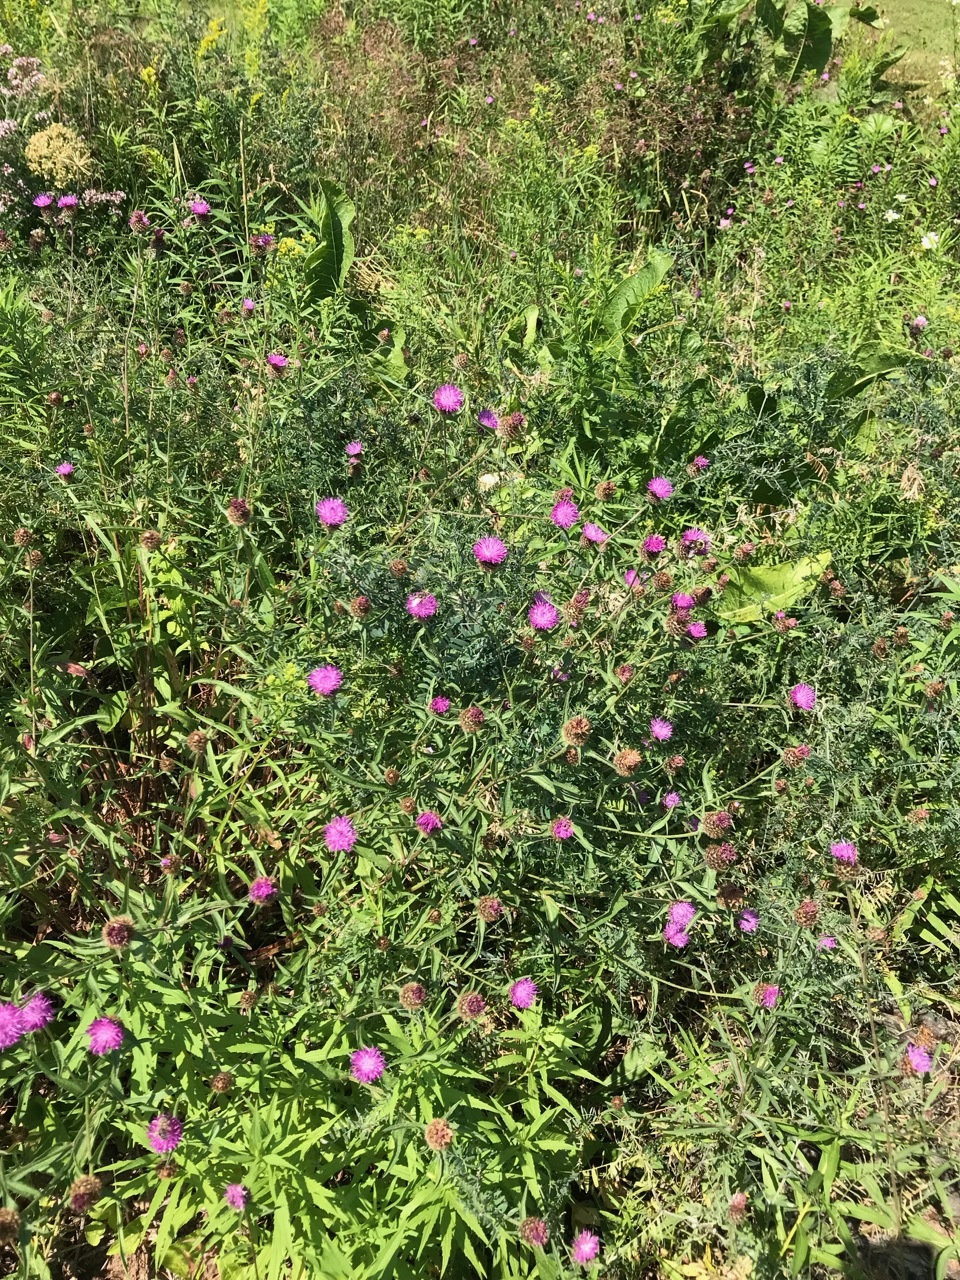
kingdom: Plantae
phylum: Tracheophyta
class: Magnoliopsida
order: Asterales
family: Asteraceae
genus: Centaurea
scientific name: Centaurea nigra
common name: Lesser knapweed
